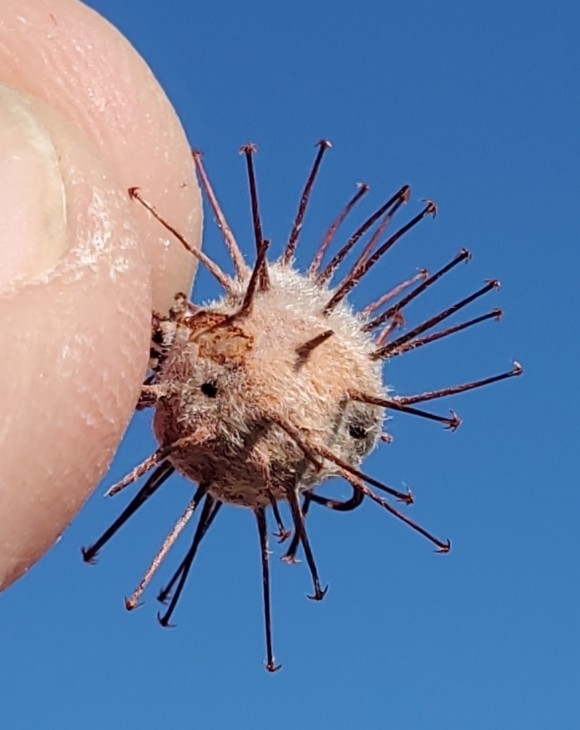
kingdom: Plantae
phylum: Tracheophyta
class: Magnoliopsida
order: Zygophyllales
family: Krameriaceae
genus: Krameria
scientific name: Krameria bicolor
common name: White ratany
